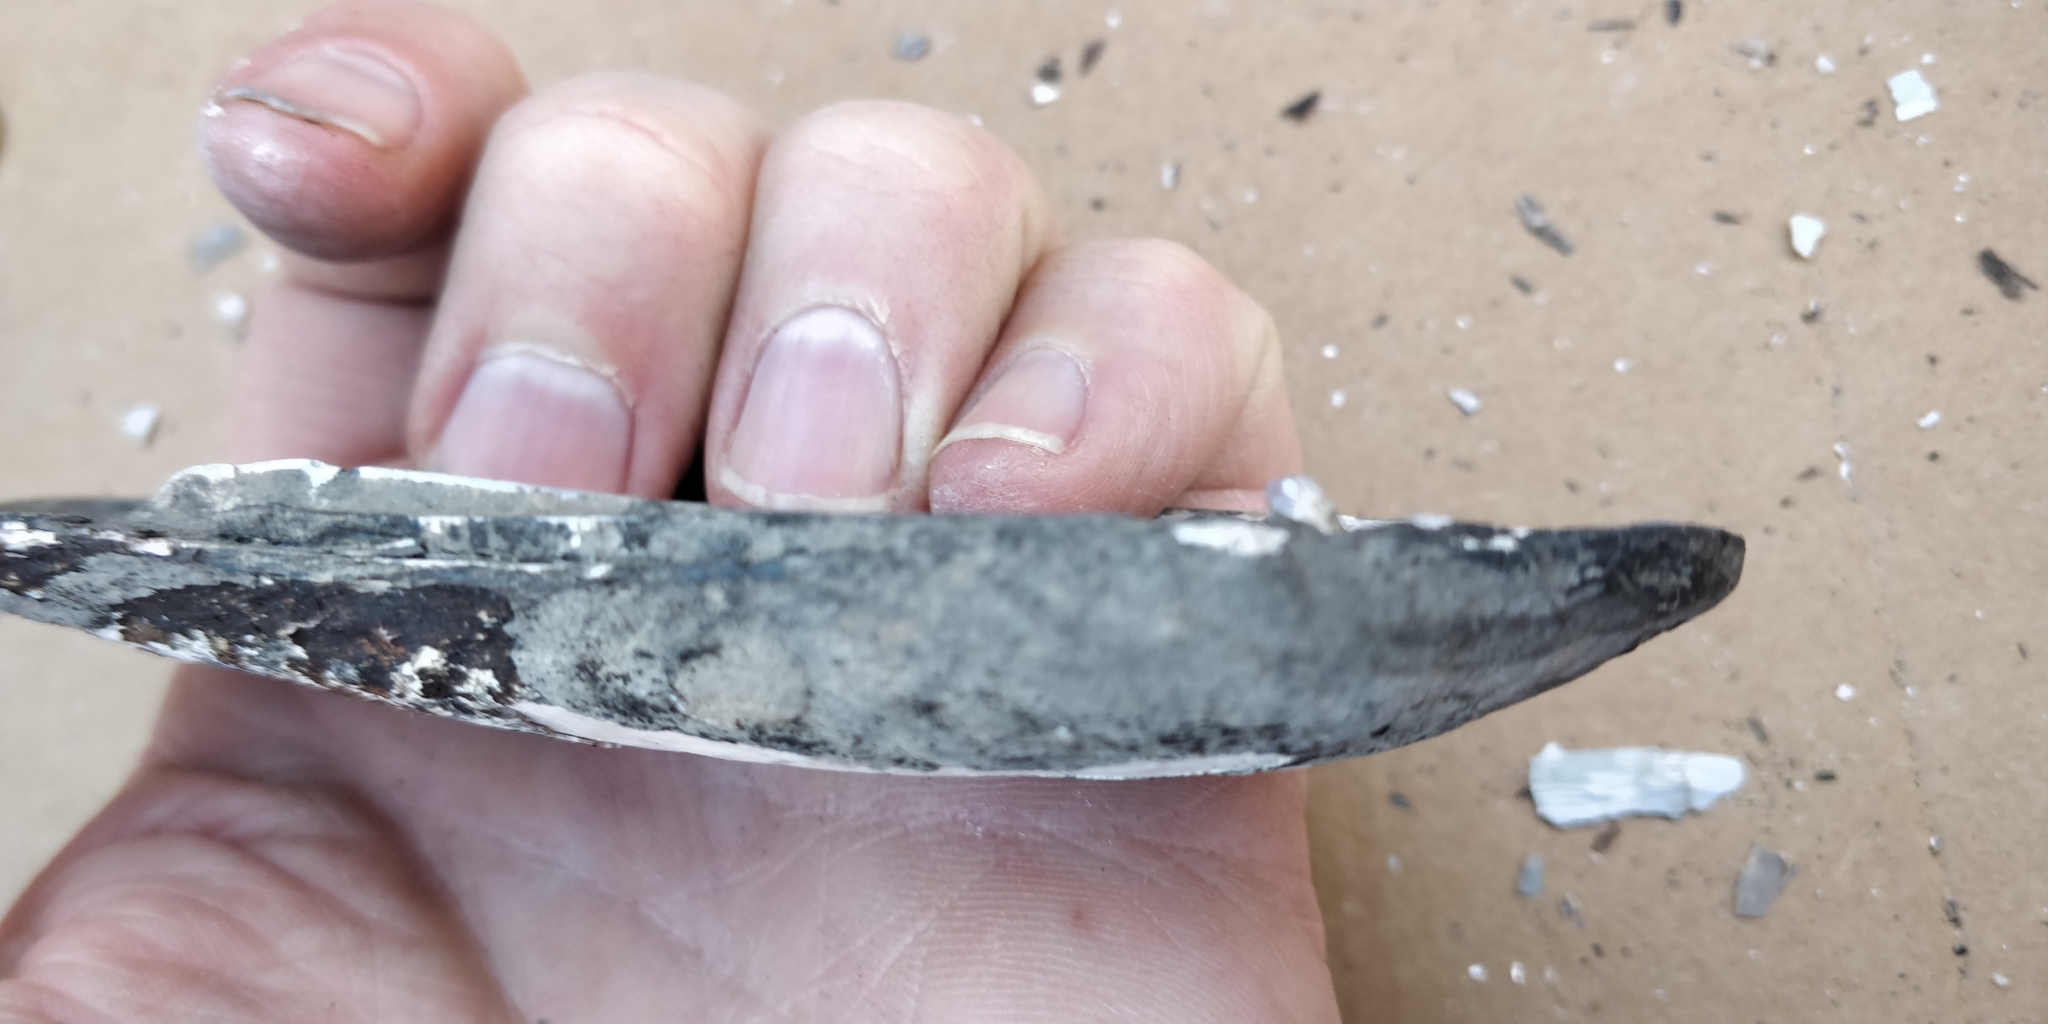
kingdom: Animalia
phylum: Mollusca
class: Bivalvia
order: Unionida
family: Unionidae
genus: Ligumia
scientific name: Ligumia recta
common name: Black sandshell
